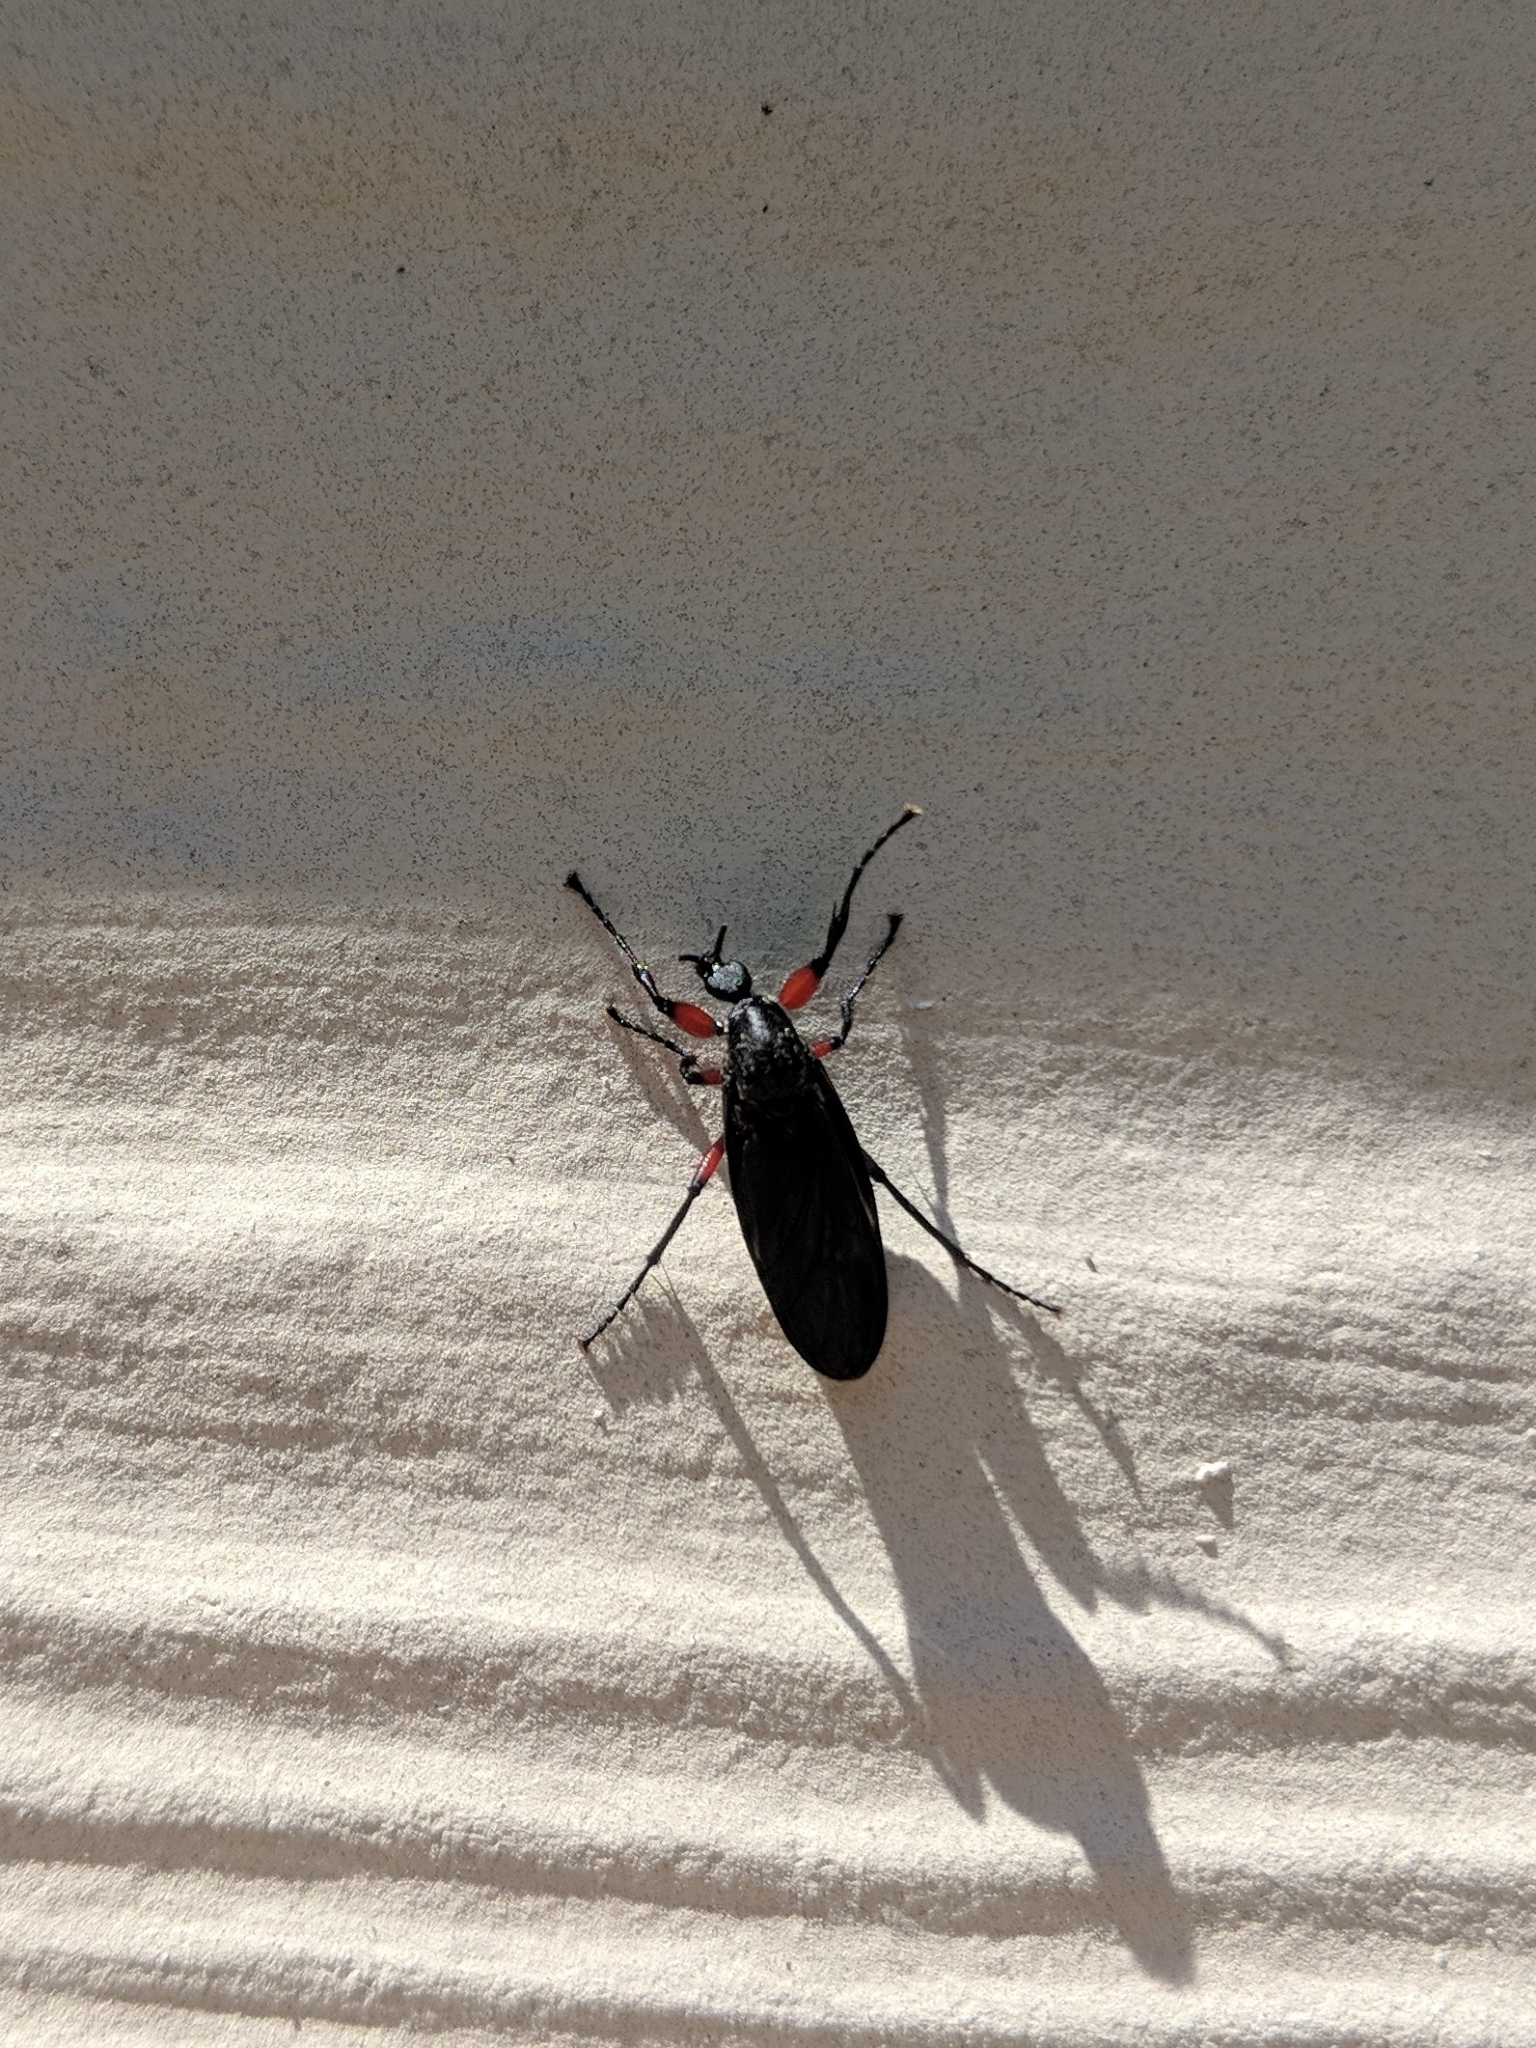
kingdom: Animalia
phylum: Arthropoda
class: Insecta
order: Diptera
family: Bibionidae
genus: Bibio
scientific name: Bibio femoratus
